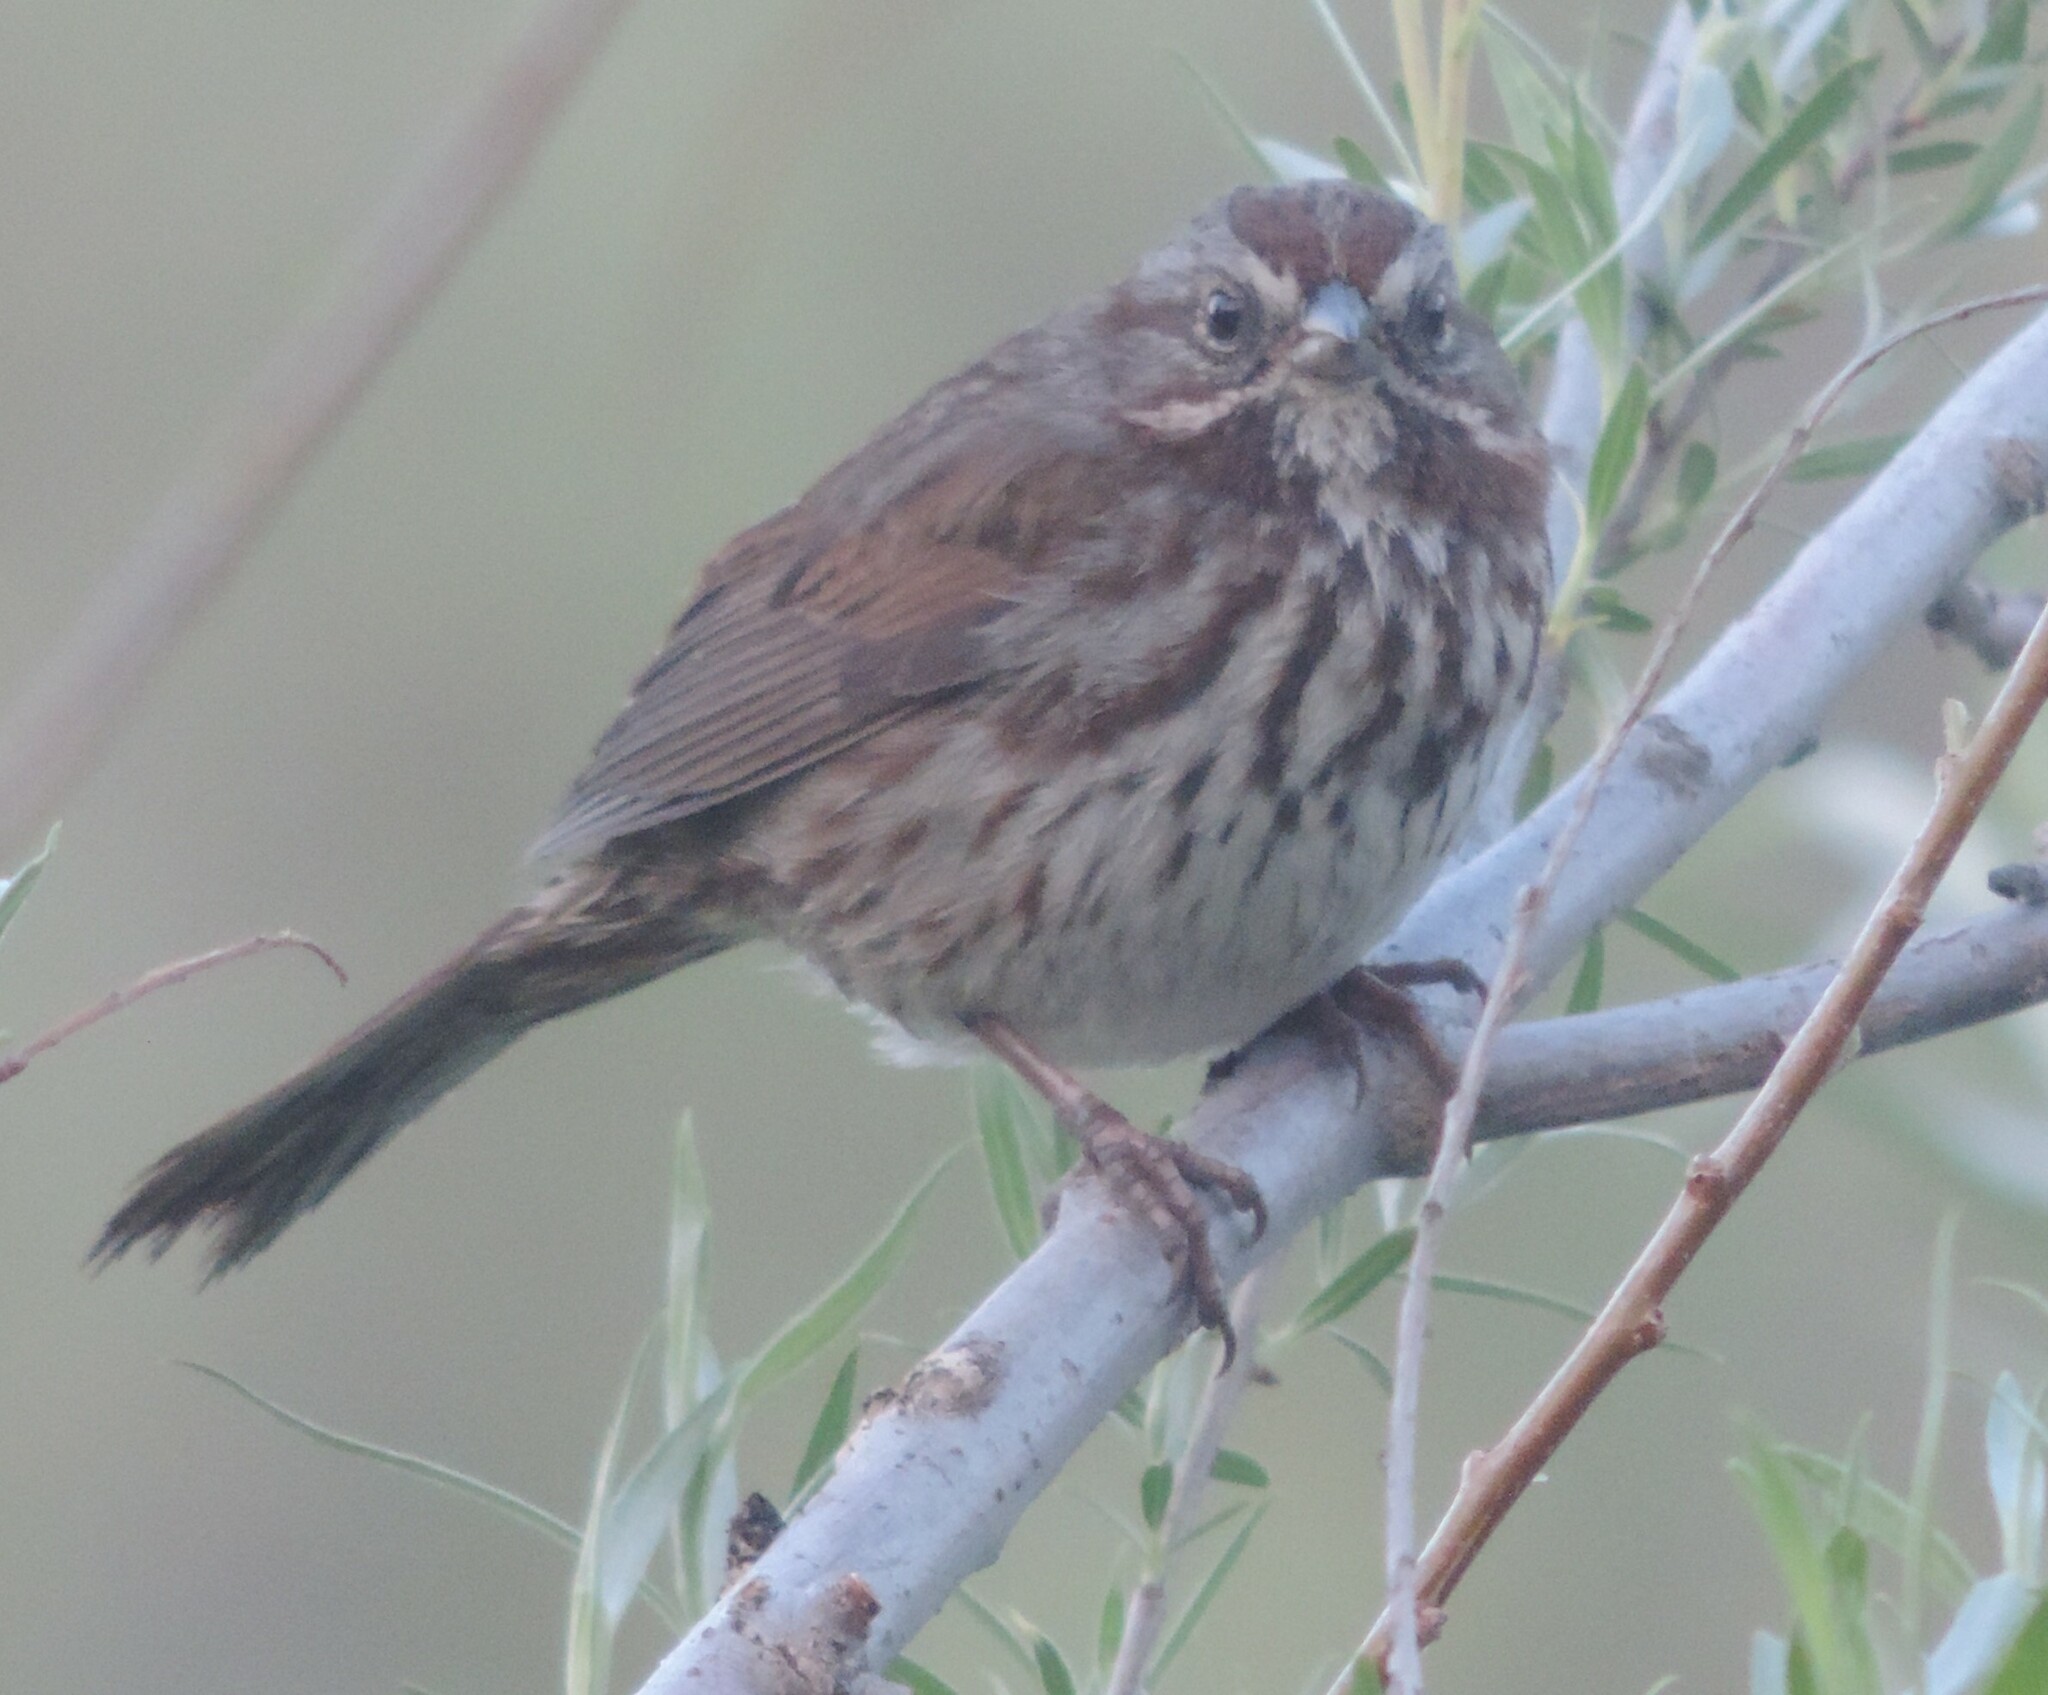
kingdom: Animalia
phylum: Chordata
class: Aves
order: Passeriformes
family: Passerellidae
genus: Melospiza
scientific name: Melospiza melodia
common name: Song sparrow
